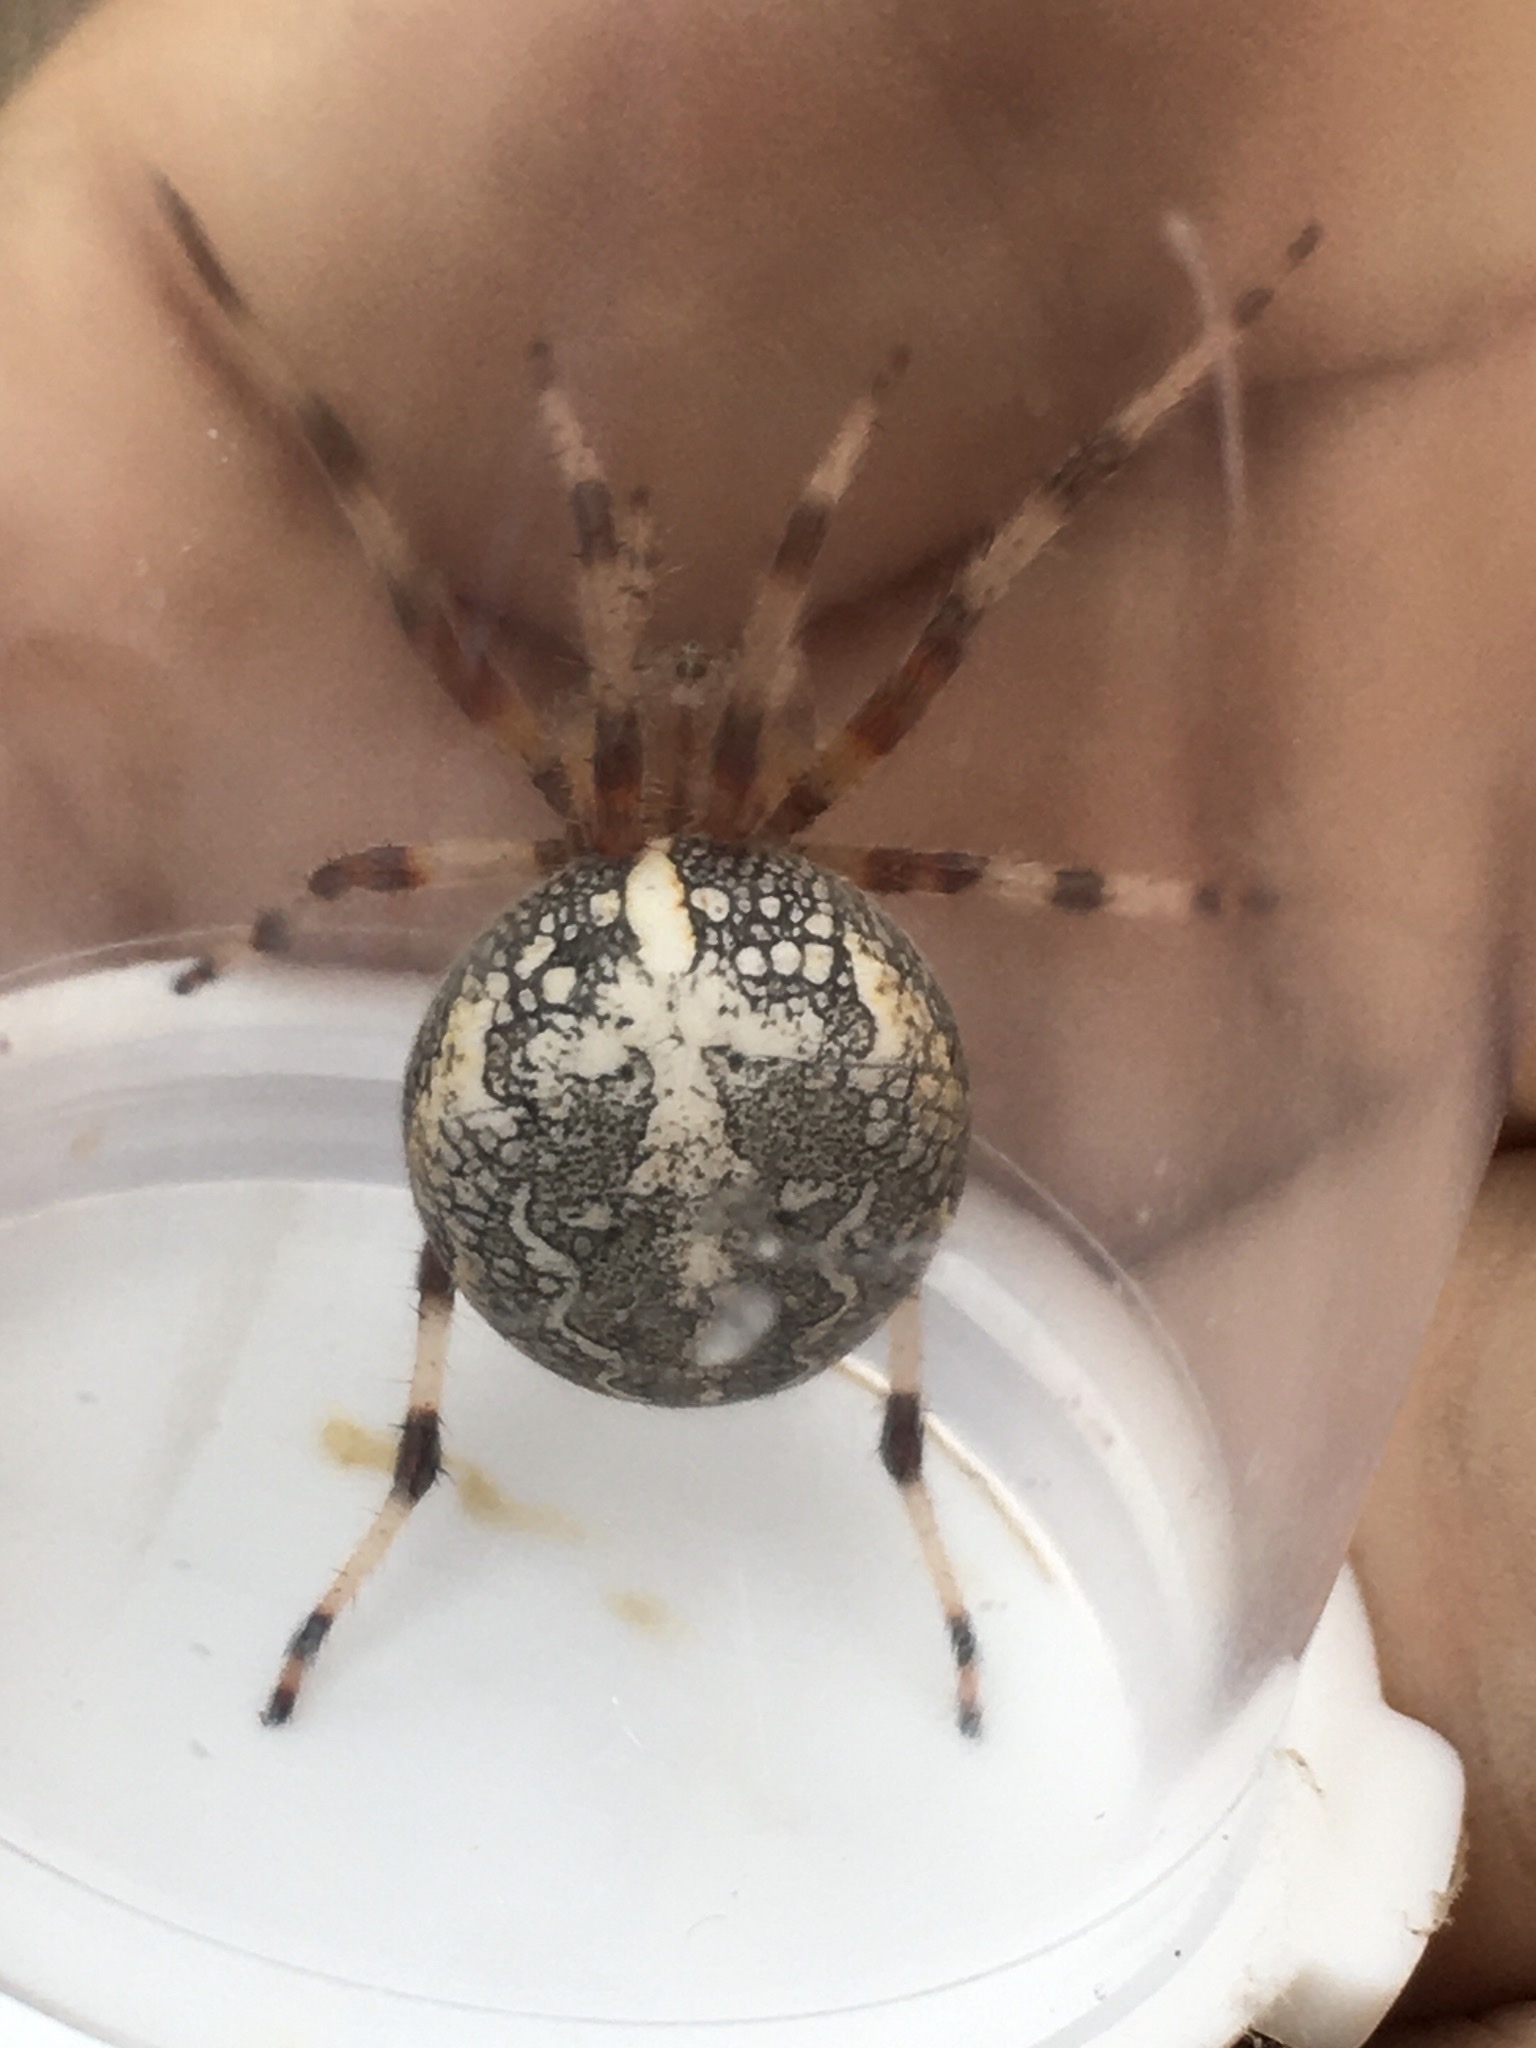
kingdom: Animalia
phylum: Arthropoda
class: Arachnida
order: Araneae
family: Araneidae
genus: Araneus
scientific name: Araneus marmoreus
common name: Marbled orbweaver
